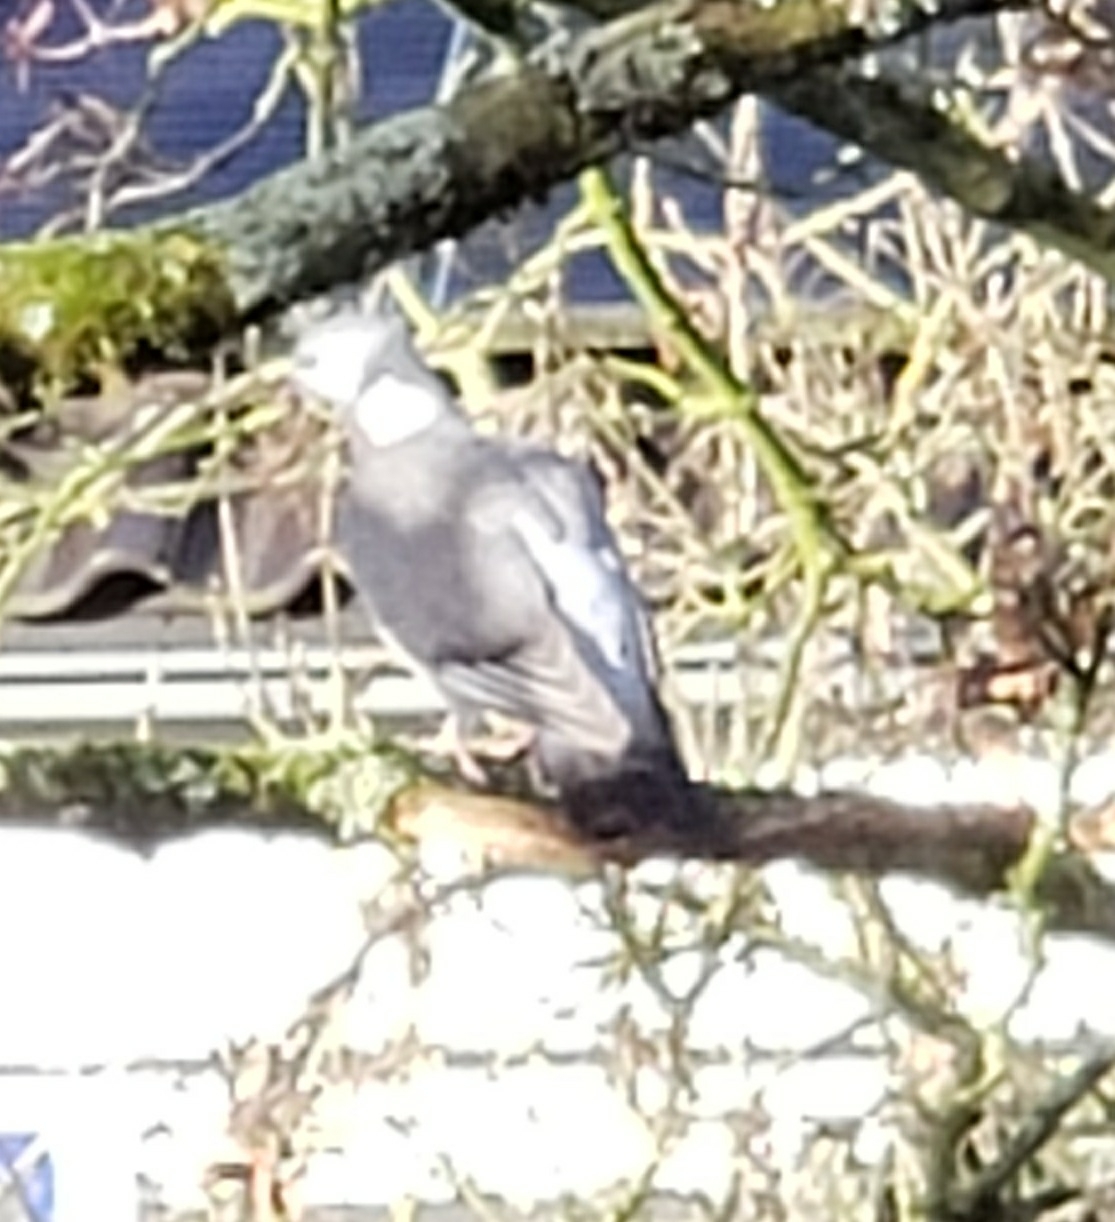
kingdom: Animalia
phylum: Chordata
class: Aves
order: Columbiformes
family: Columbidae
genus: Columba
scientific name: Columba palumbus
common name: Common wood pigeon
